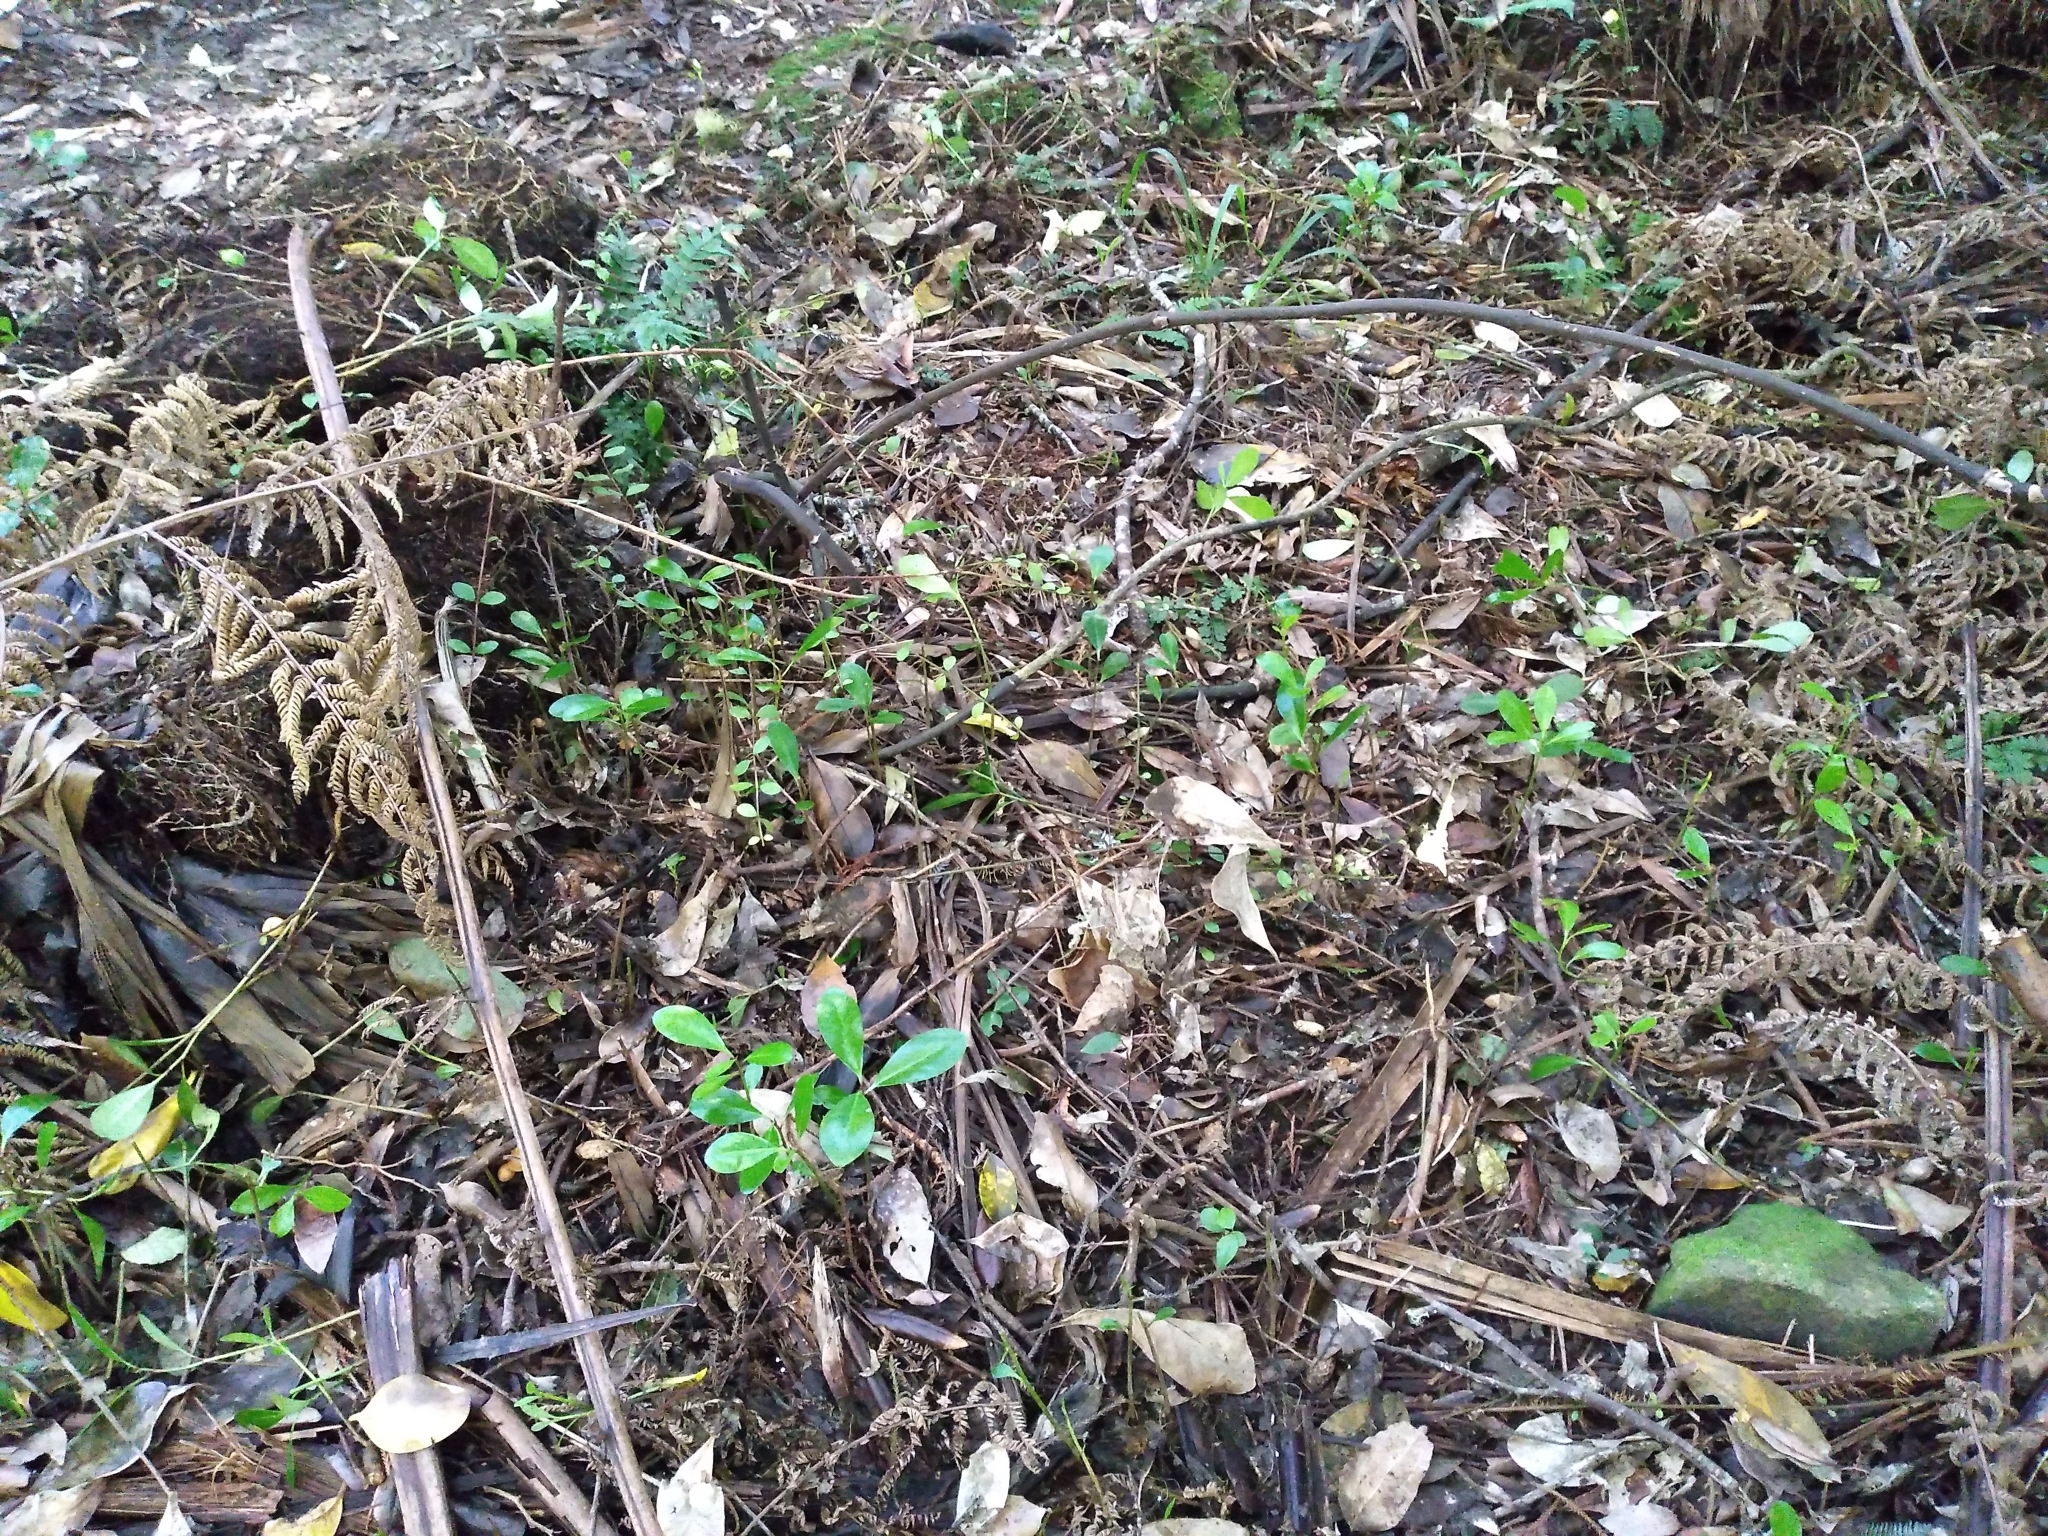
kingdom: Plantae
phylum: Tracheophyta
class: Magnoliopsida
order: Cucurbitales
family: Corynocarpaceae
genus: Corynocarpus
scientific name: Corynocarpus laevigatus
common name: New zealand laurel
